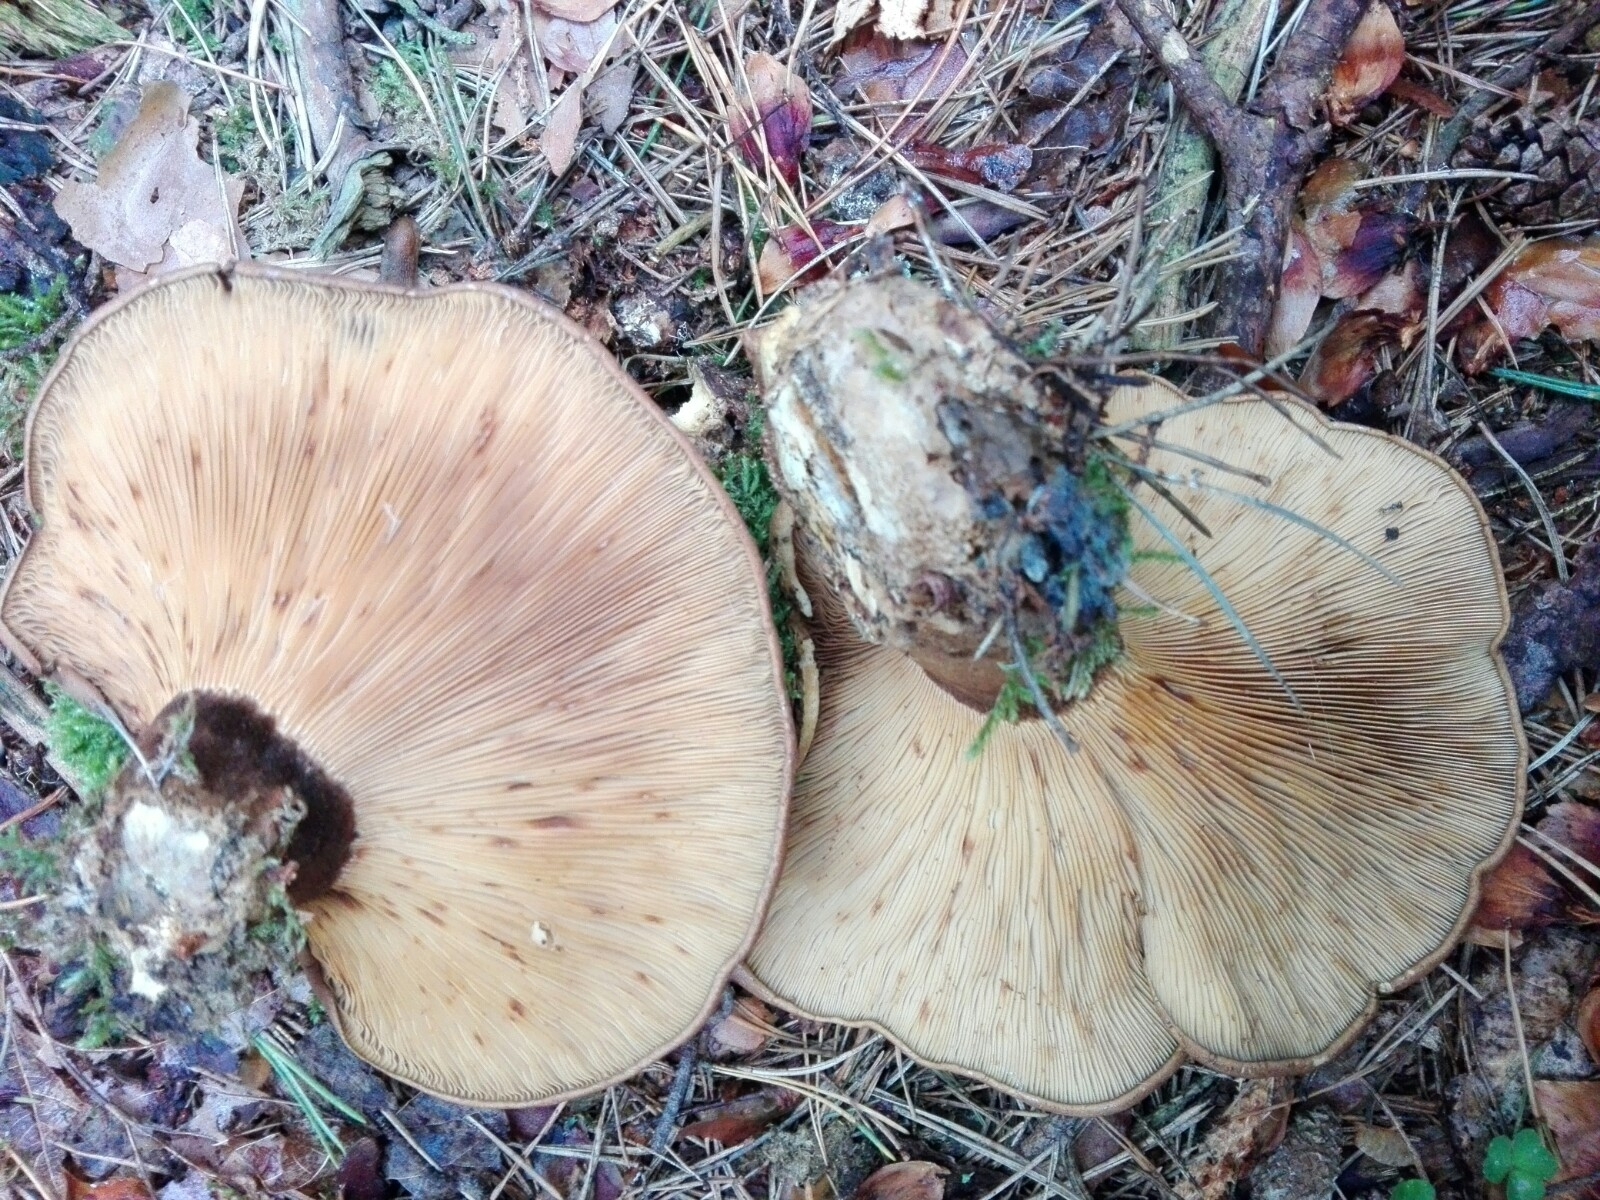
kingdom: Fungi
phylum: Basidiomycota
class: Agaricomycetes
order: Boletales
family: Tapinellaceae
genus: Tapinella
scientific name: Tapinella atrotomentosa
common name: Velvet rollrim
